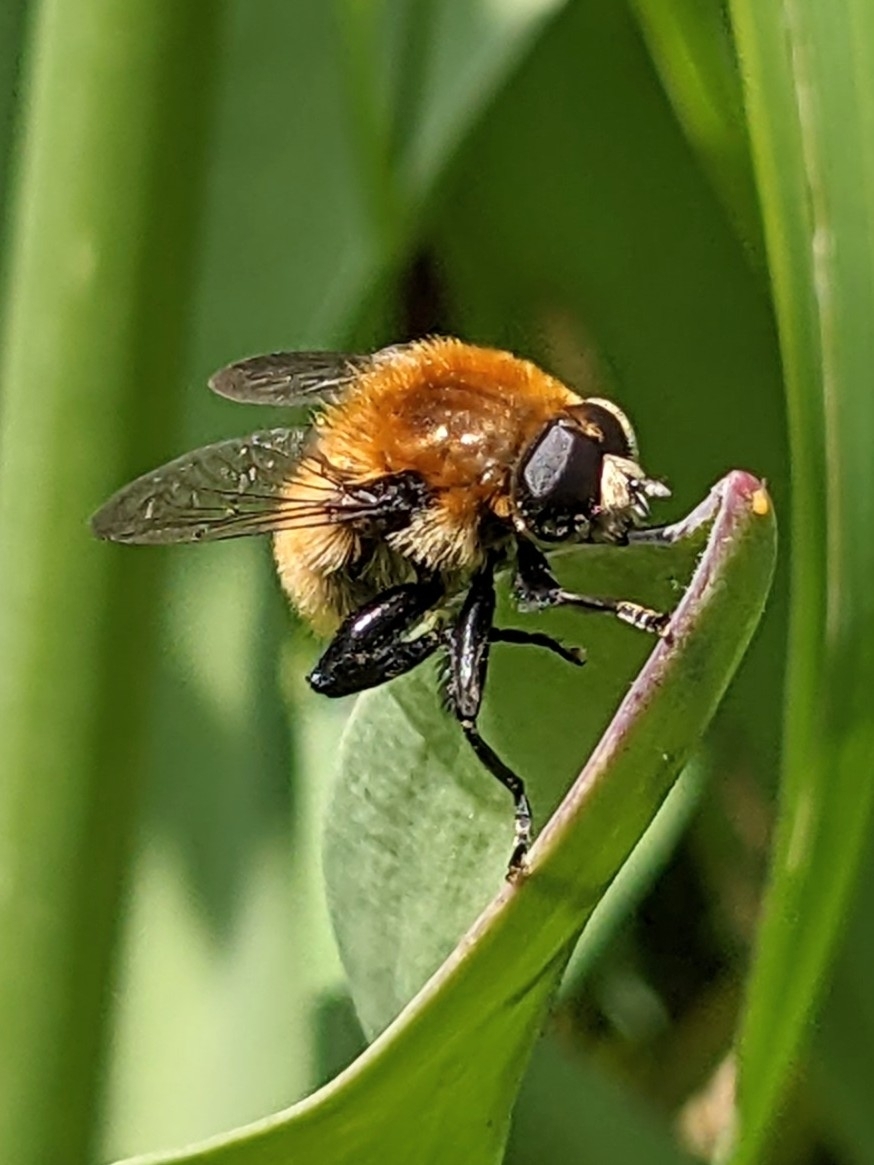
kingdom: Animalia
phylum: Arthropoda
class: Insecta
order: Diptera
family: Syrphidae
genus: Merodon
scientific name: Merodon equestris
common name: Greater bulb-fly
